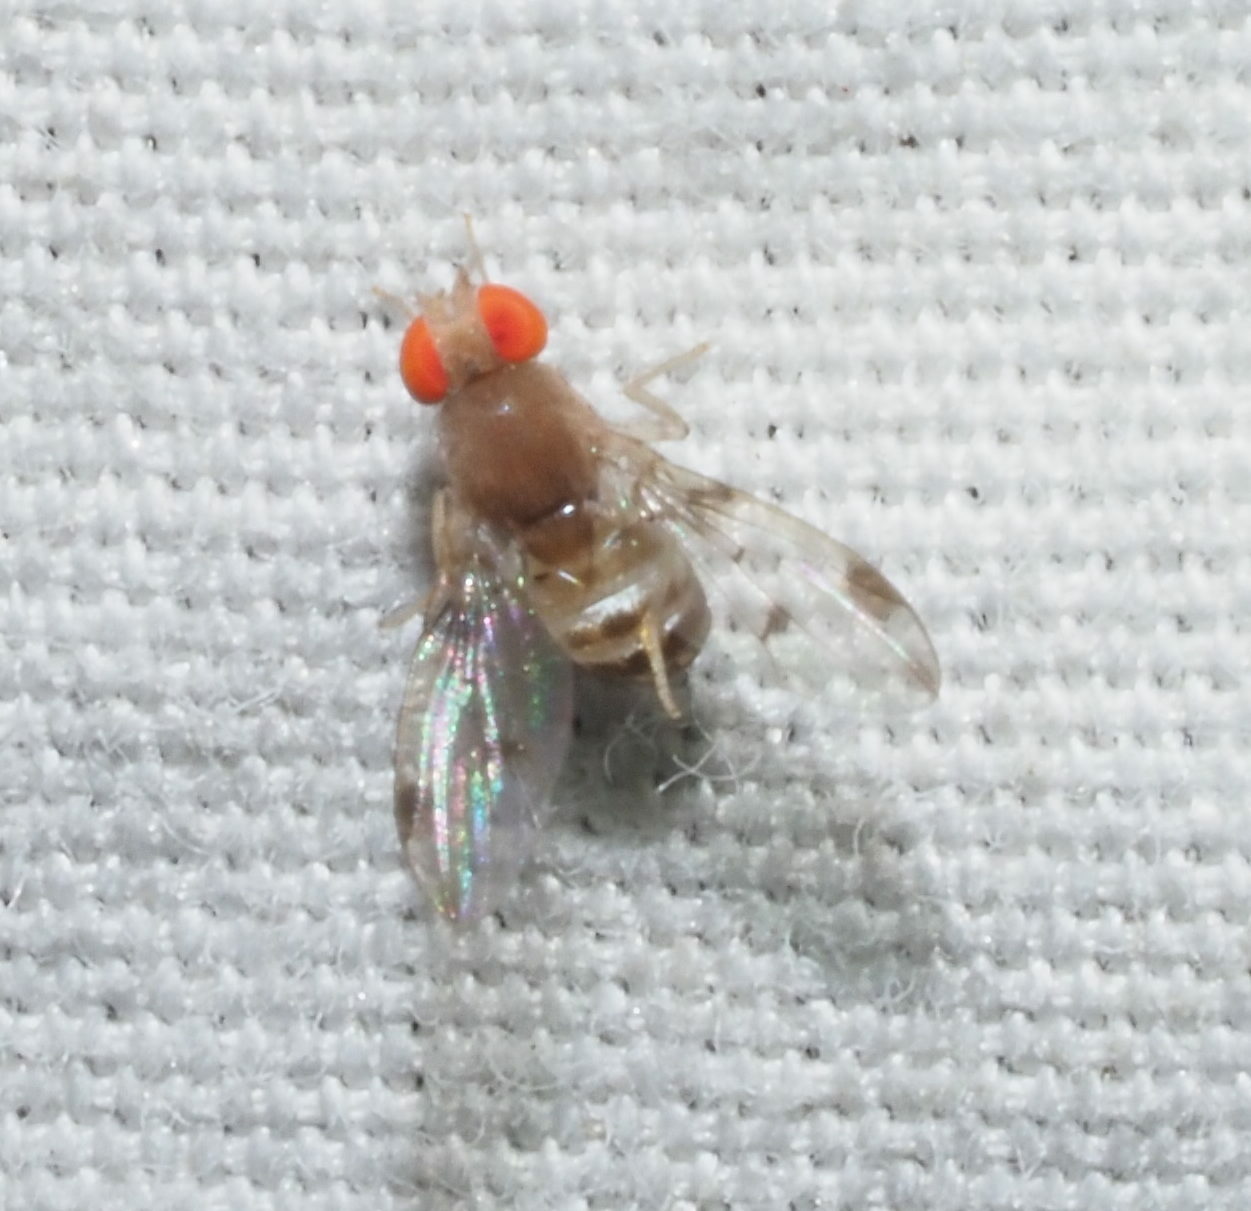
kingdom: Animalia
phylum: Arthropoda
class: Insecta
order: Diptera
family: Drosophilidae
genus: Leucophenga
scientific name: Leucophenga maculosa
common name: Pomace fly
